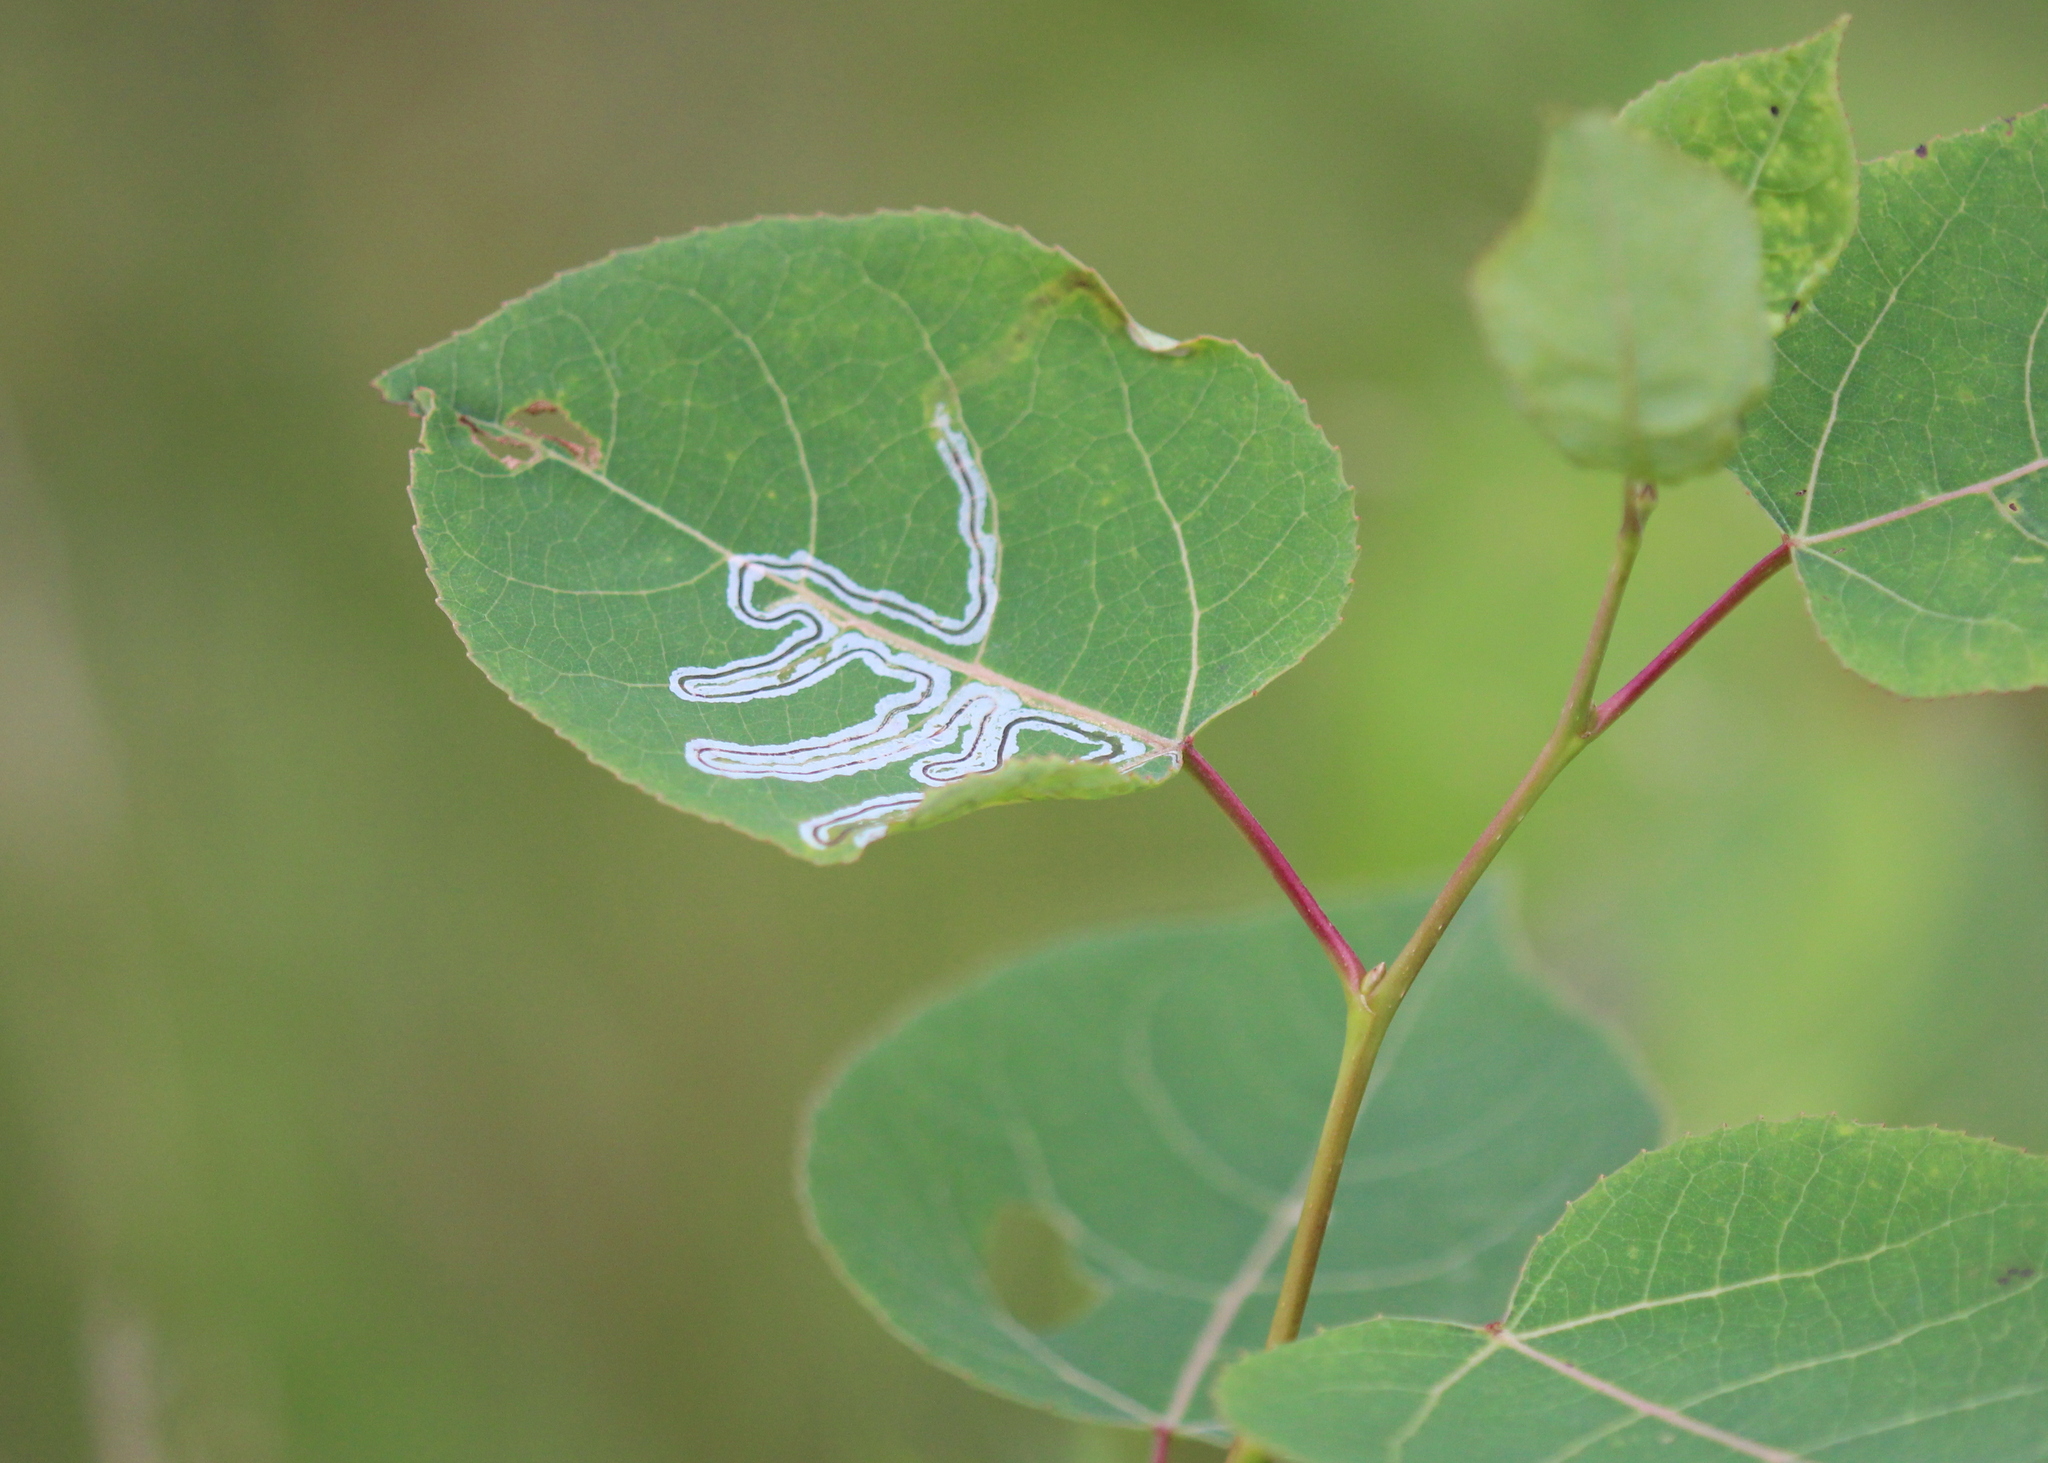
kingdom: Plantae
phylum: Tracheophyta
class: Magnoliopsida
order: Malpighiales
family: Salicaceae
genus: Populus
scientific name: Populus tremuloides
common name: Quaking aspen
